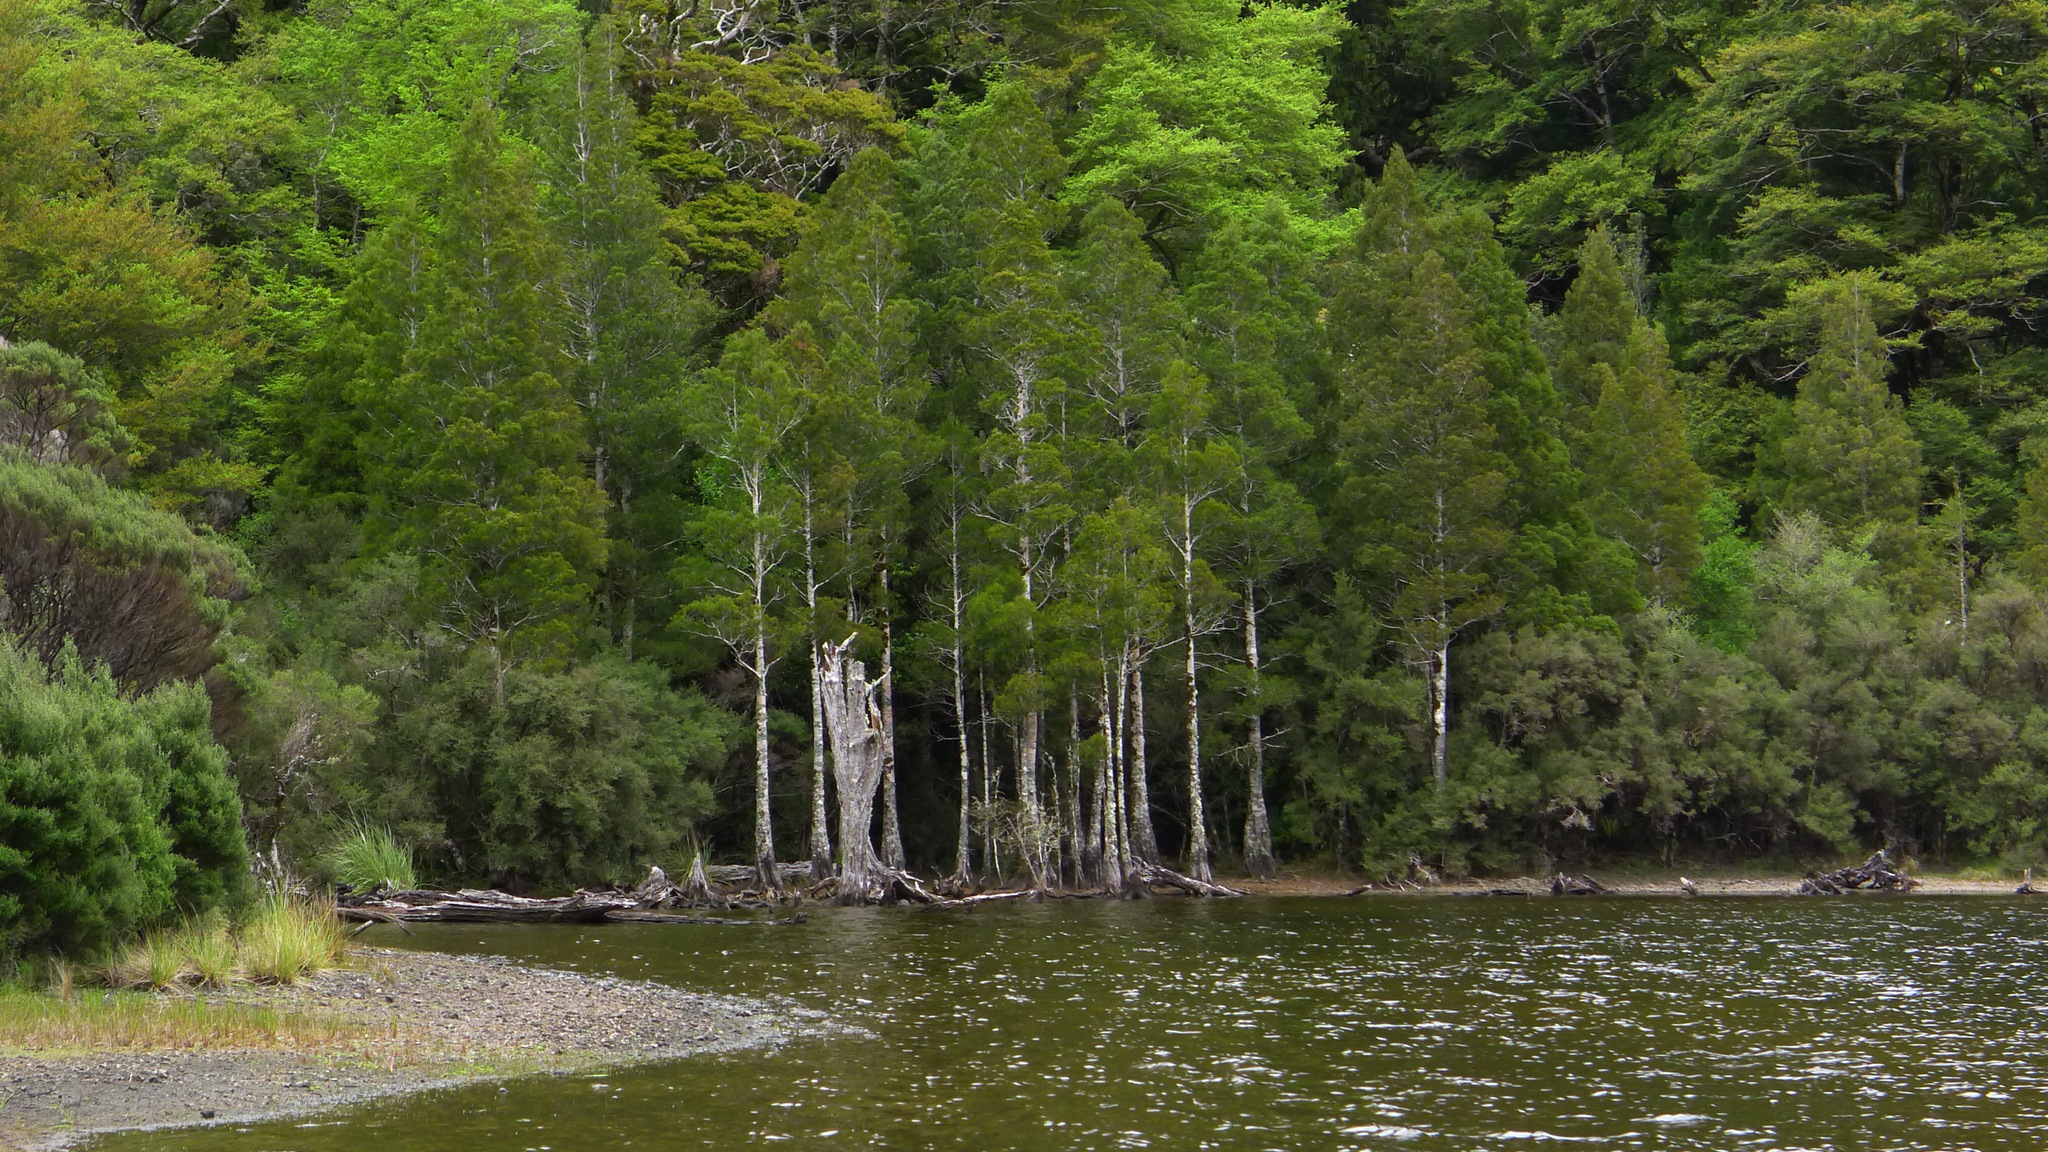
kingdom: Plantae
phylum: Tracheophyta
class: Pinopsida
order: Pinales
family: Podocarpaceae
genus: Dacrycarpus
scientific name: Dacrycarpus dacrydioides
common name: White pine
